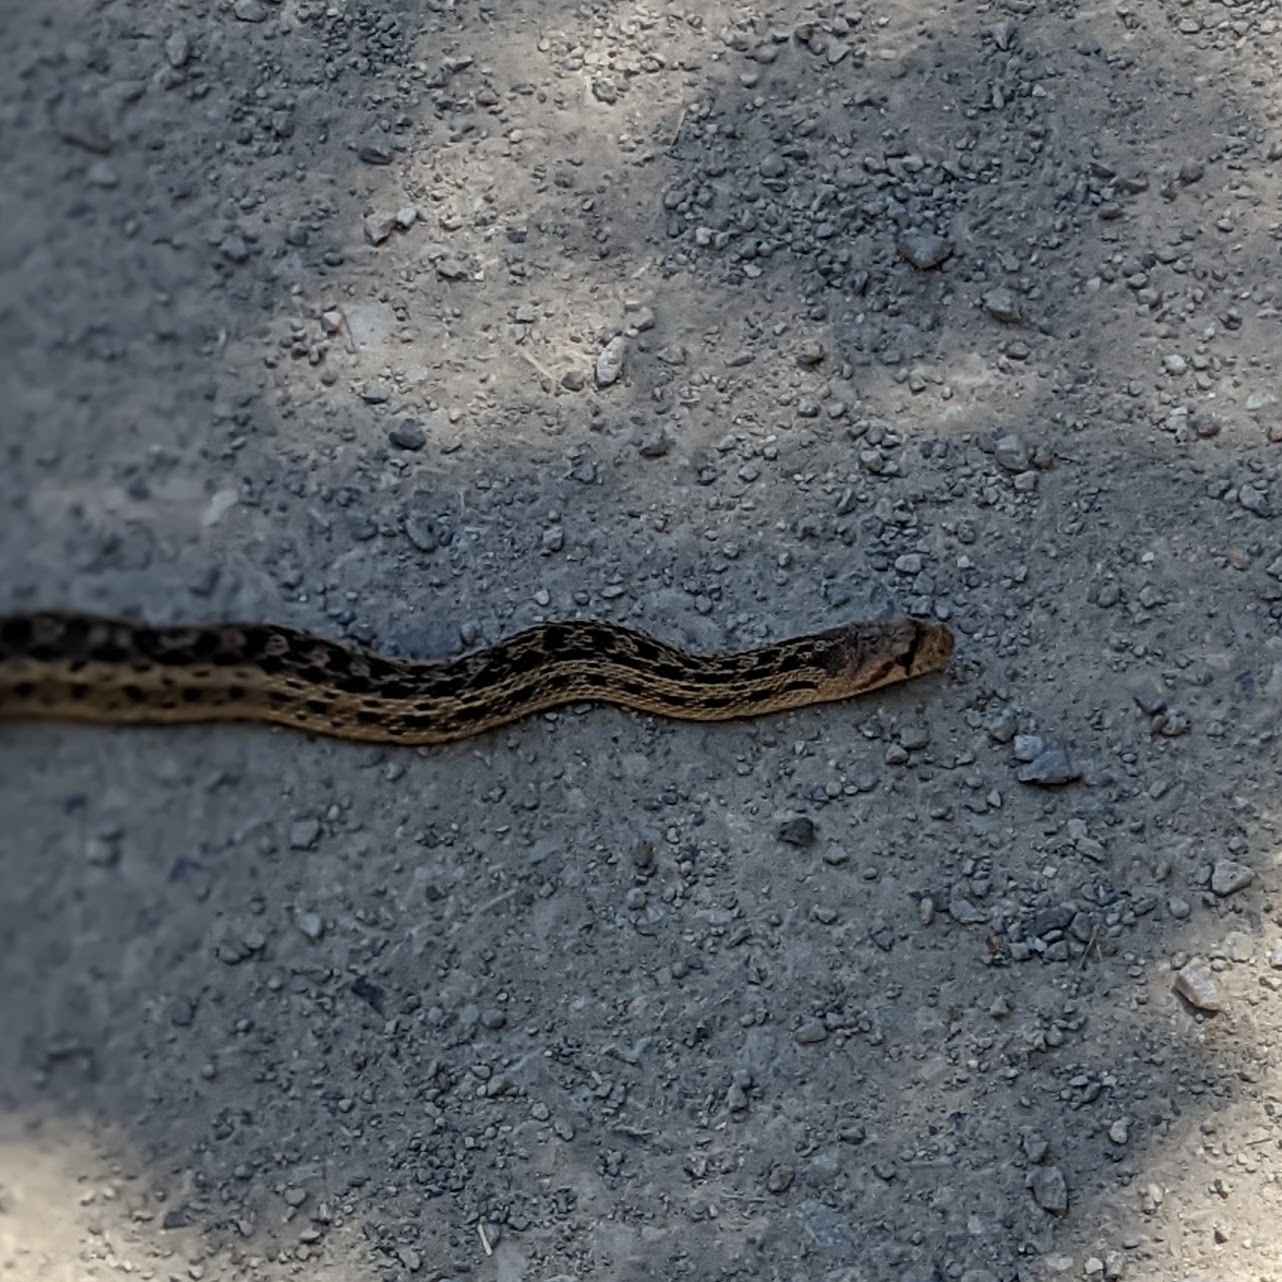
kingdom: Animalia
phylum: Chordata
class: Squamata
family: Colubridae
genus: Pituophis
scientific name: Pituophis catenifer
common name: Gopher snake
